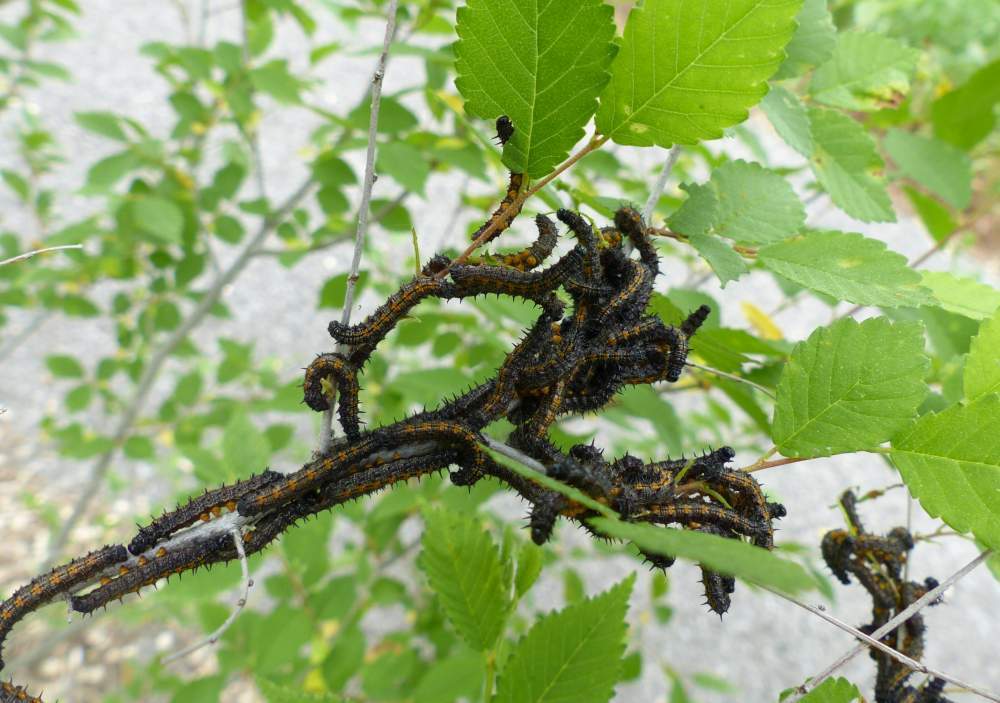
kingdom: Animalia
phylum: Arthropoda
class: Insecta
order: Lepidoptera
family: Nymphalidae
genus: Nymphalis
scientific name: Nymphalis antiopa
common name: Camberwell beauty
